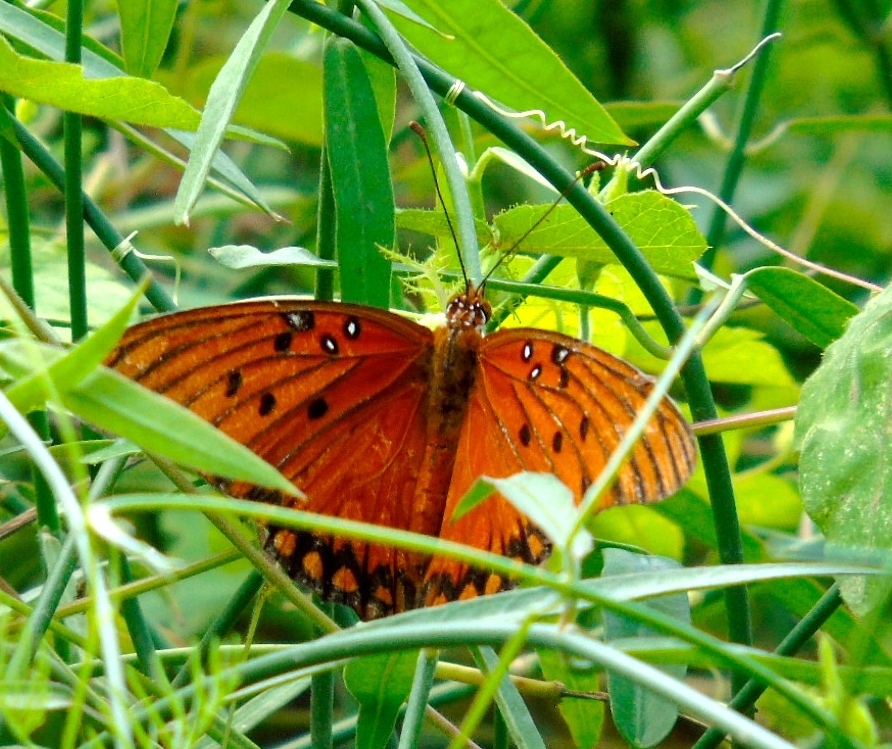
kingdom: Animalia
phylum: Arthropoda
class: Insecta
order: Lepidoptera
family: Nymphalidae
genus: Dione
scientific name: Dione vanillae
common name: Gulf fritillary
